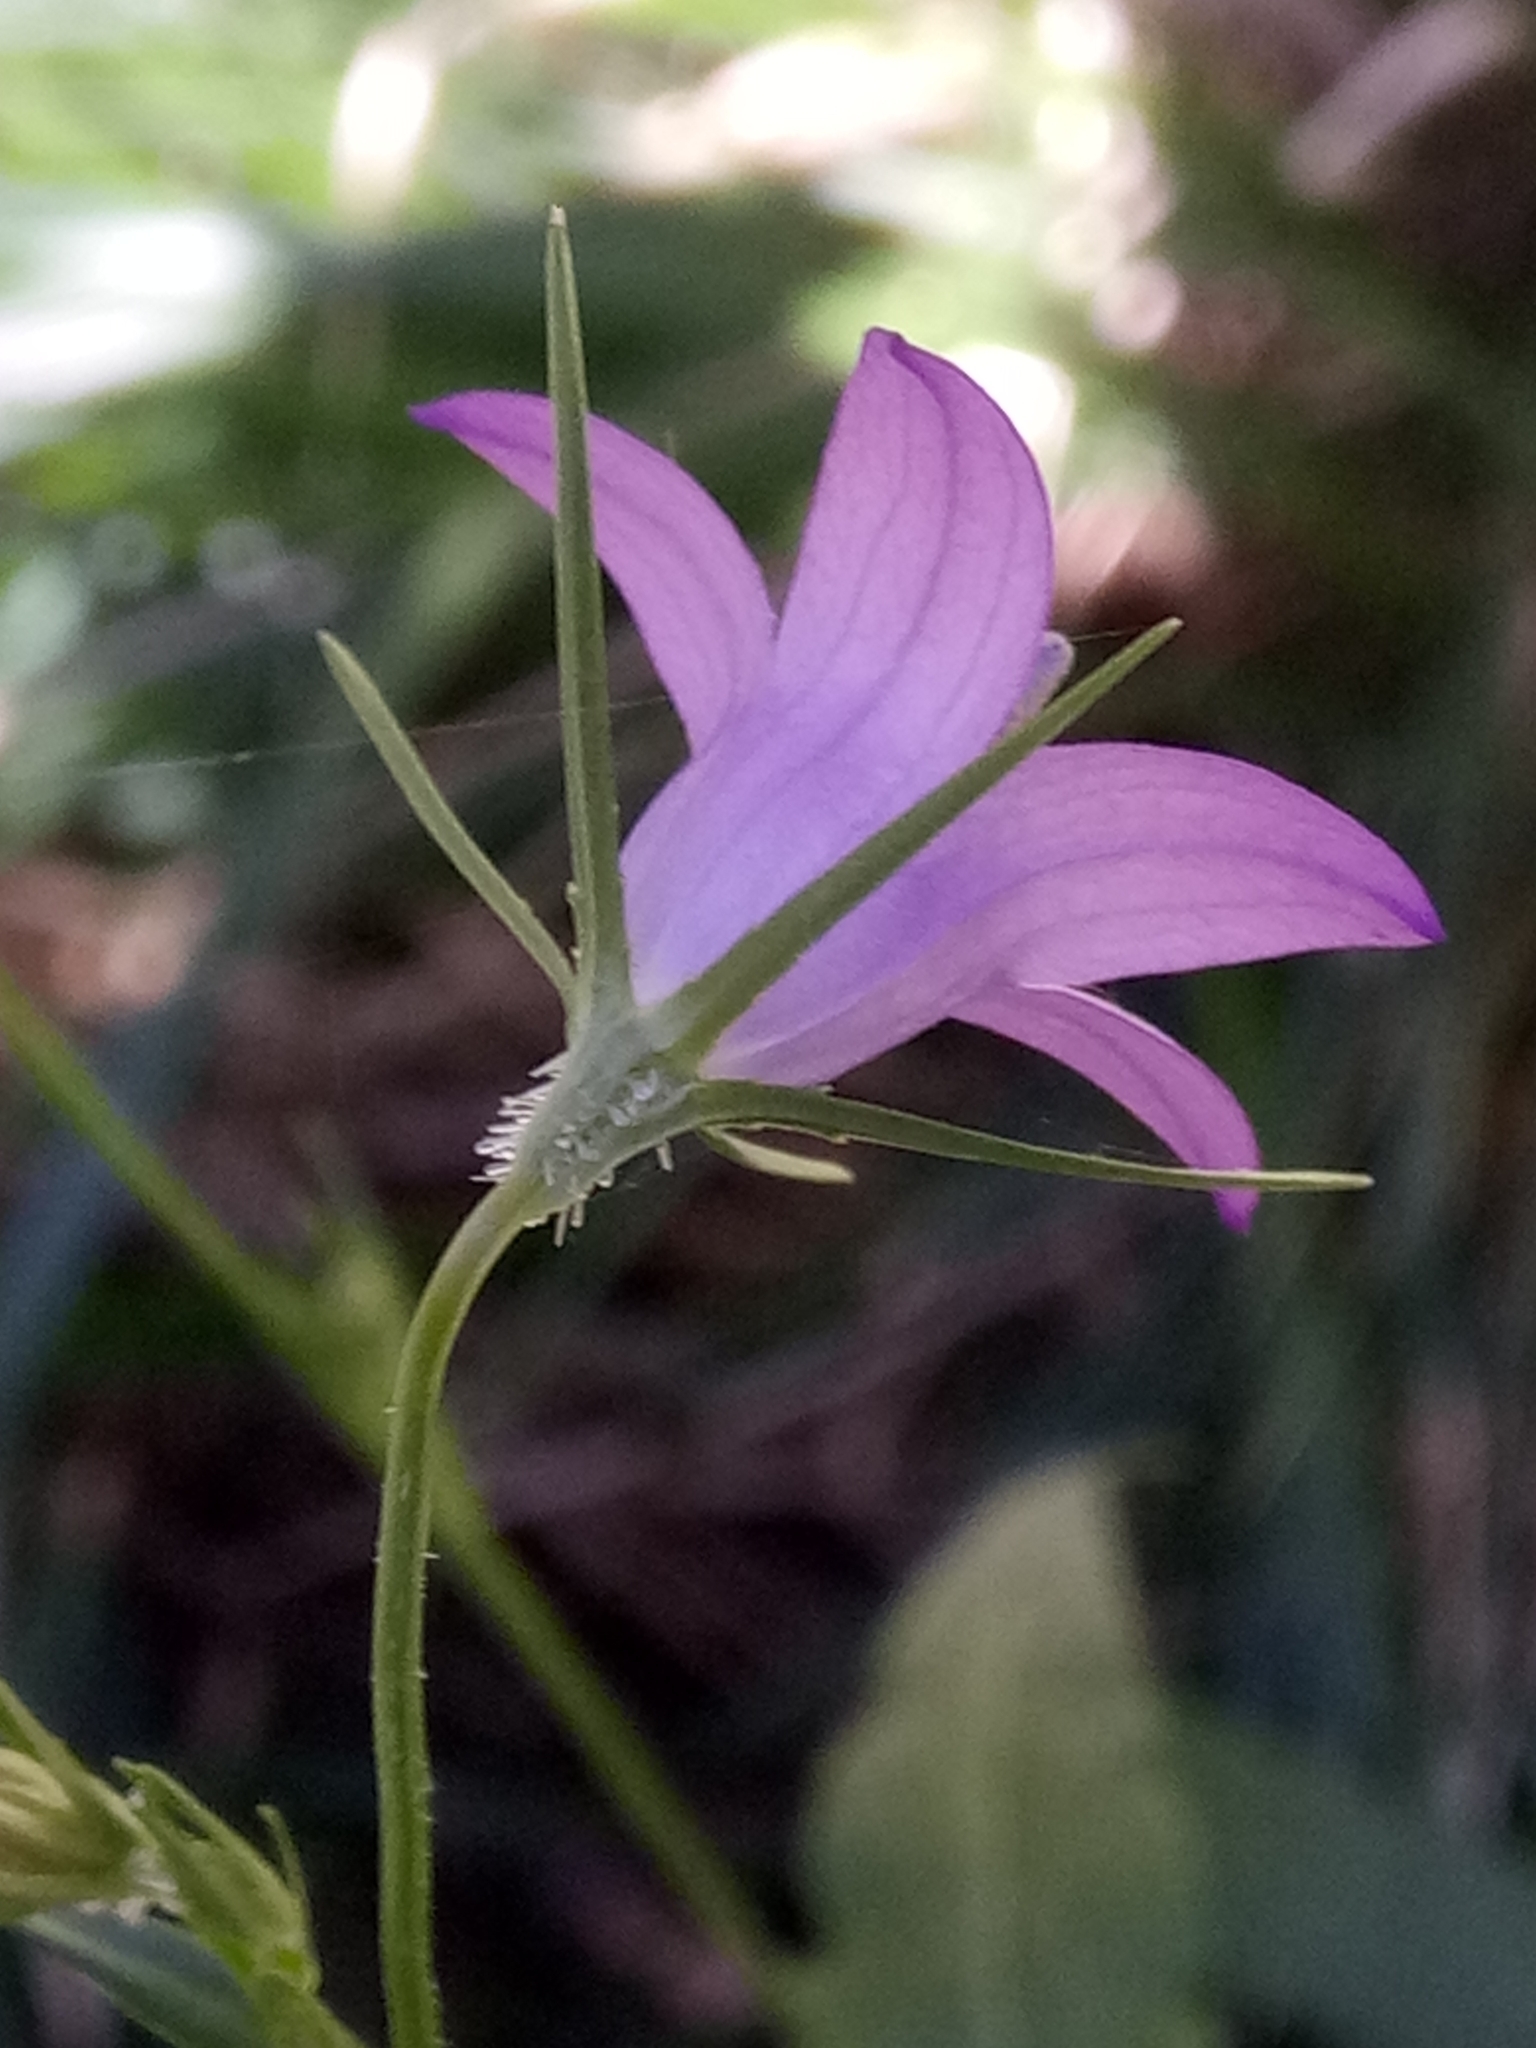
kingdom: Plantae
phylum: Tracheophyta
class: Magnoliopsida
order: Asterales
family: Campanulaceae
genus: Campanula
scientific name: Campanula rapunculus
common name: Rampion bellflower
